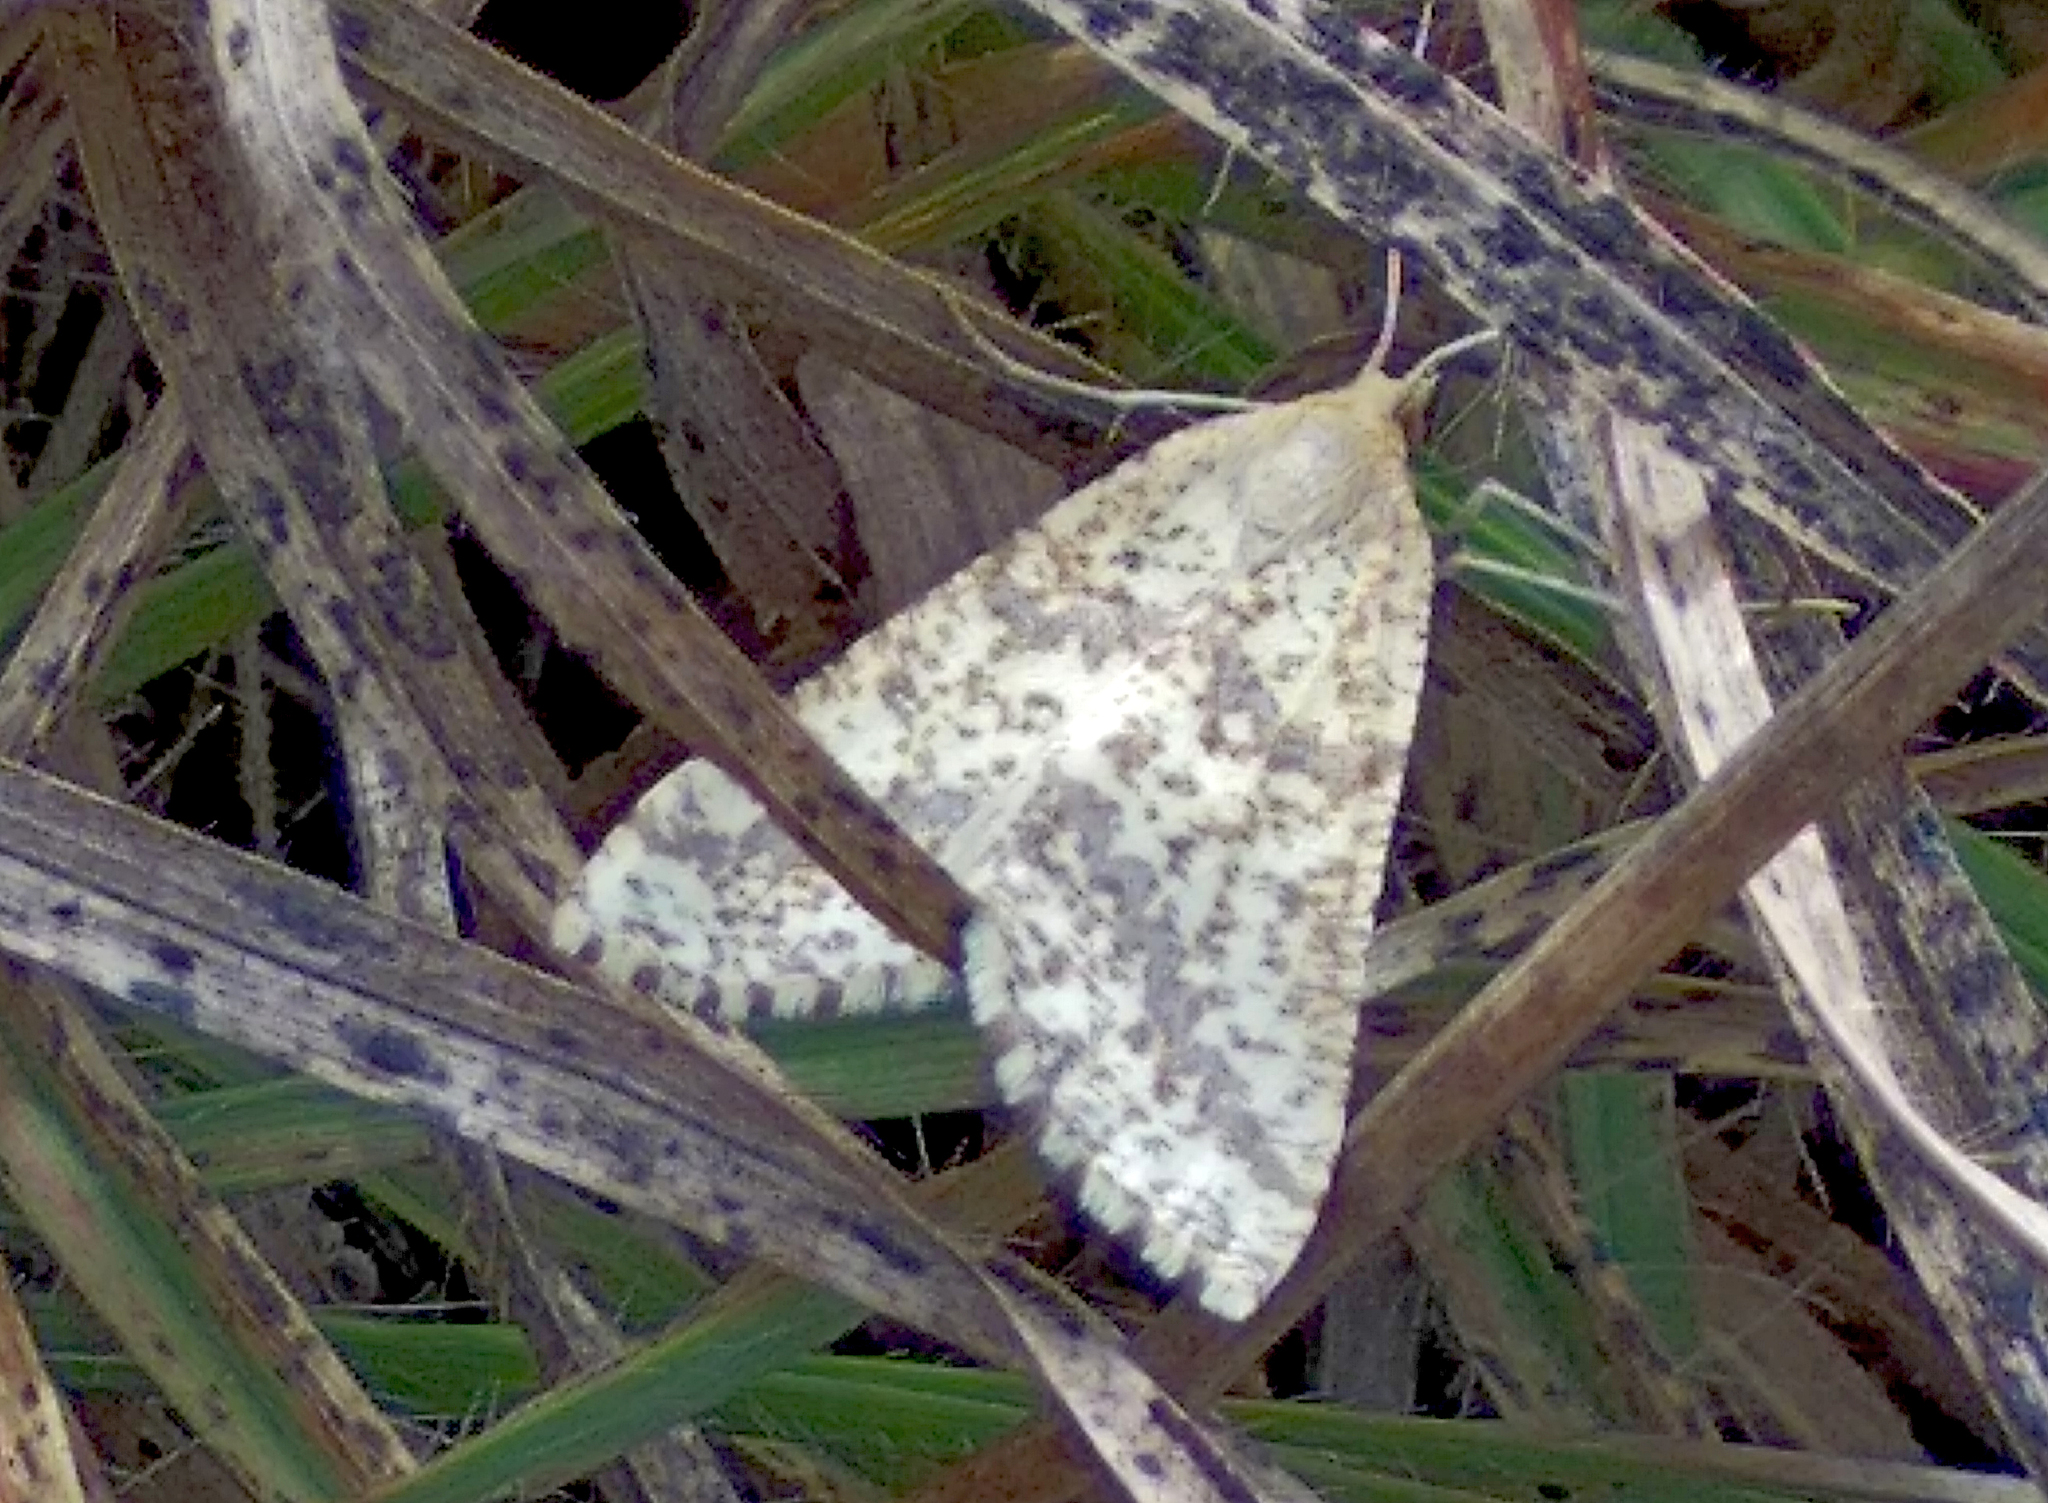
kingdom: Animalia
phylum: Arthropoda
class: Insecta
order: Lepidoptera
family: Geometridae
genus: Aspitates
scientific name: Aspitates ochrearia
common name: Yellow belle
